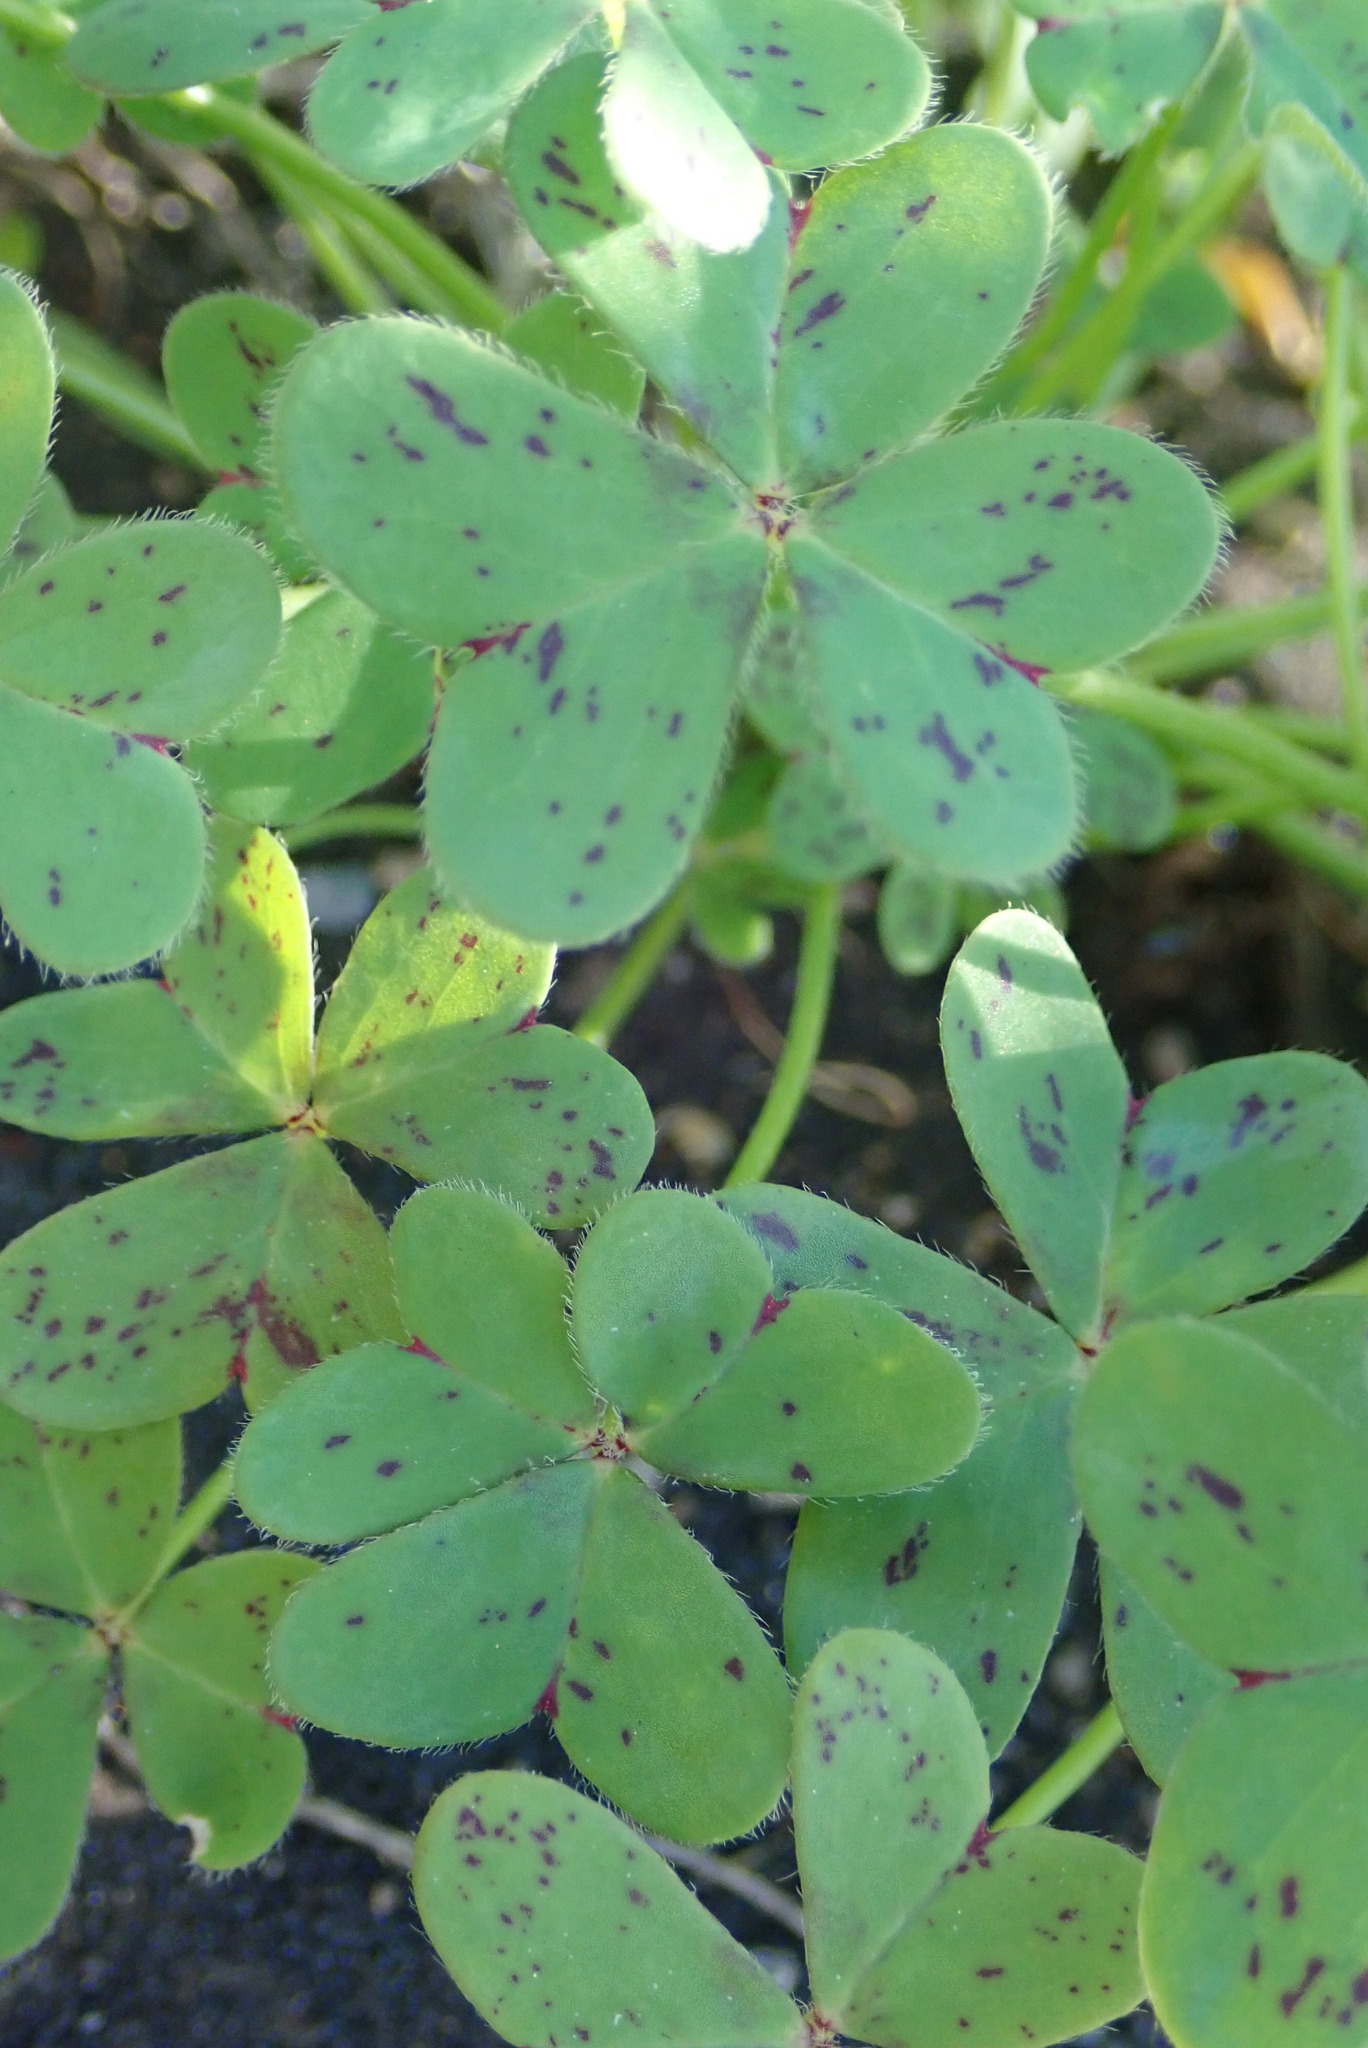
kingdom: Plantae
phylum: Tracheophyta
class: Magnoliopsida
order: Oxalidales
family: Oxalidaceae
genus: Oxalis
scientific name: Oxalis pes-caprae
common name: Bermuda-buttercup
